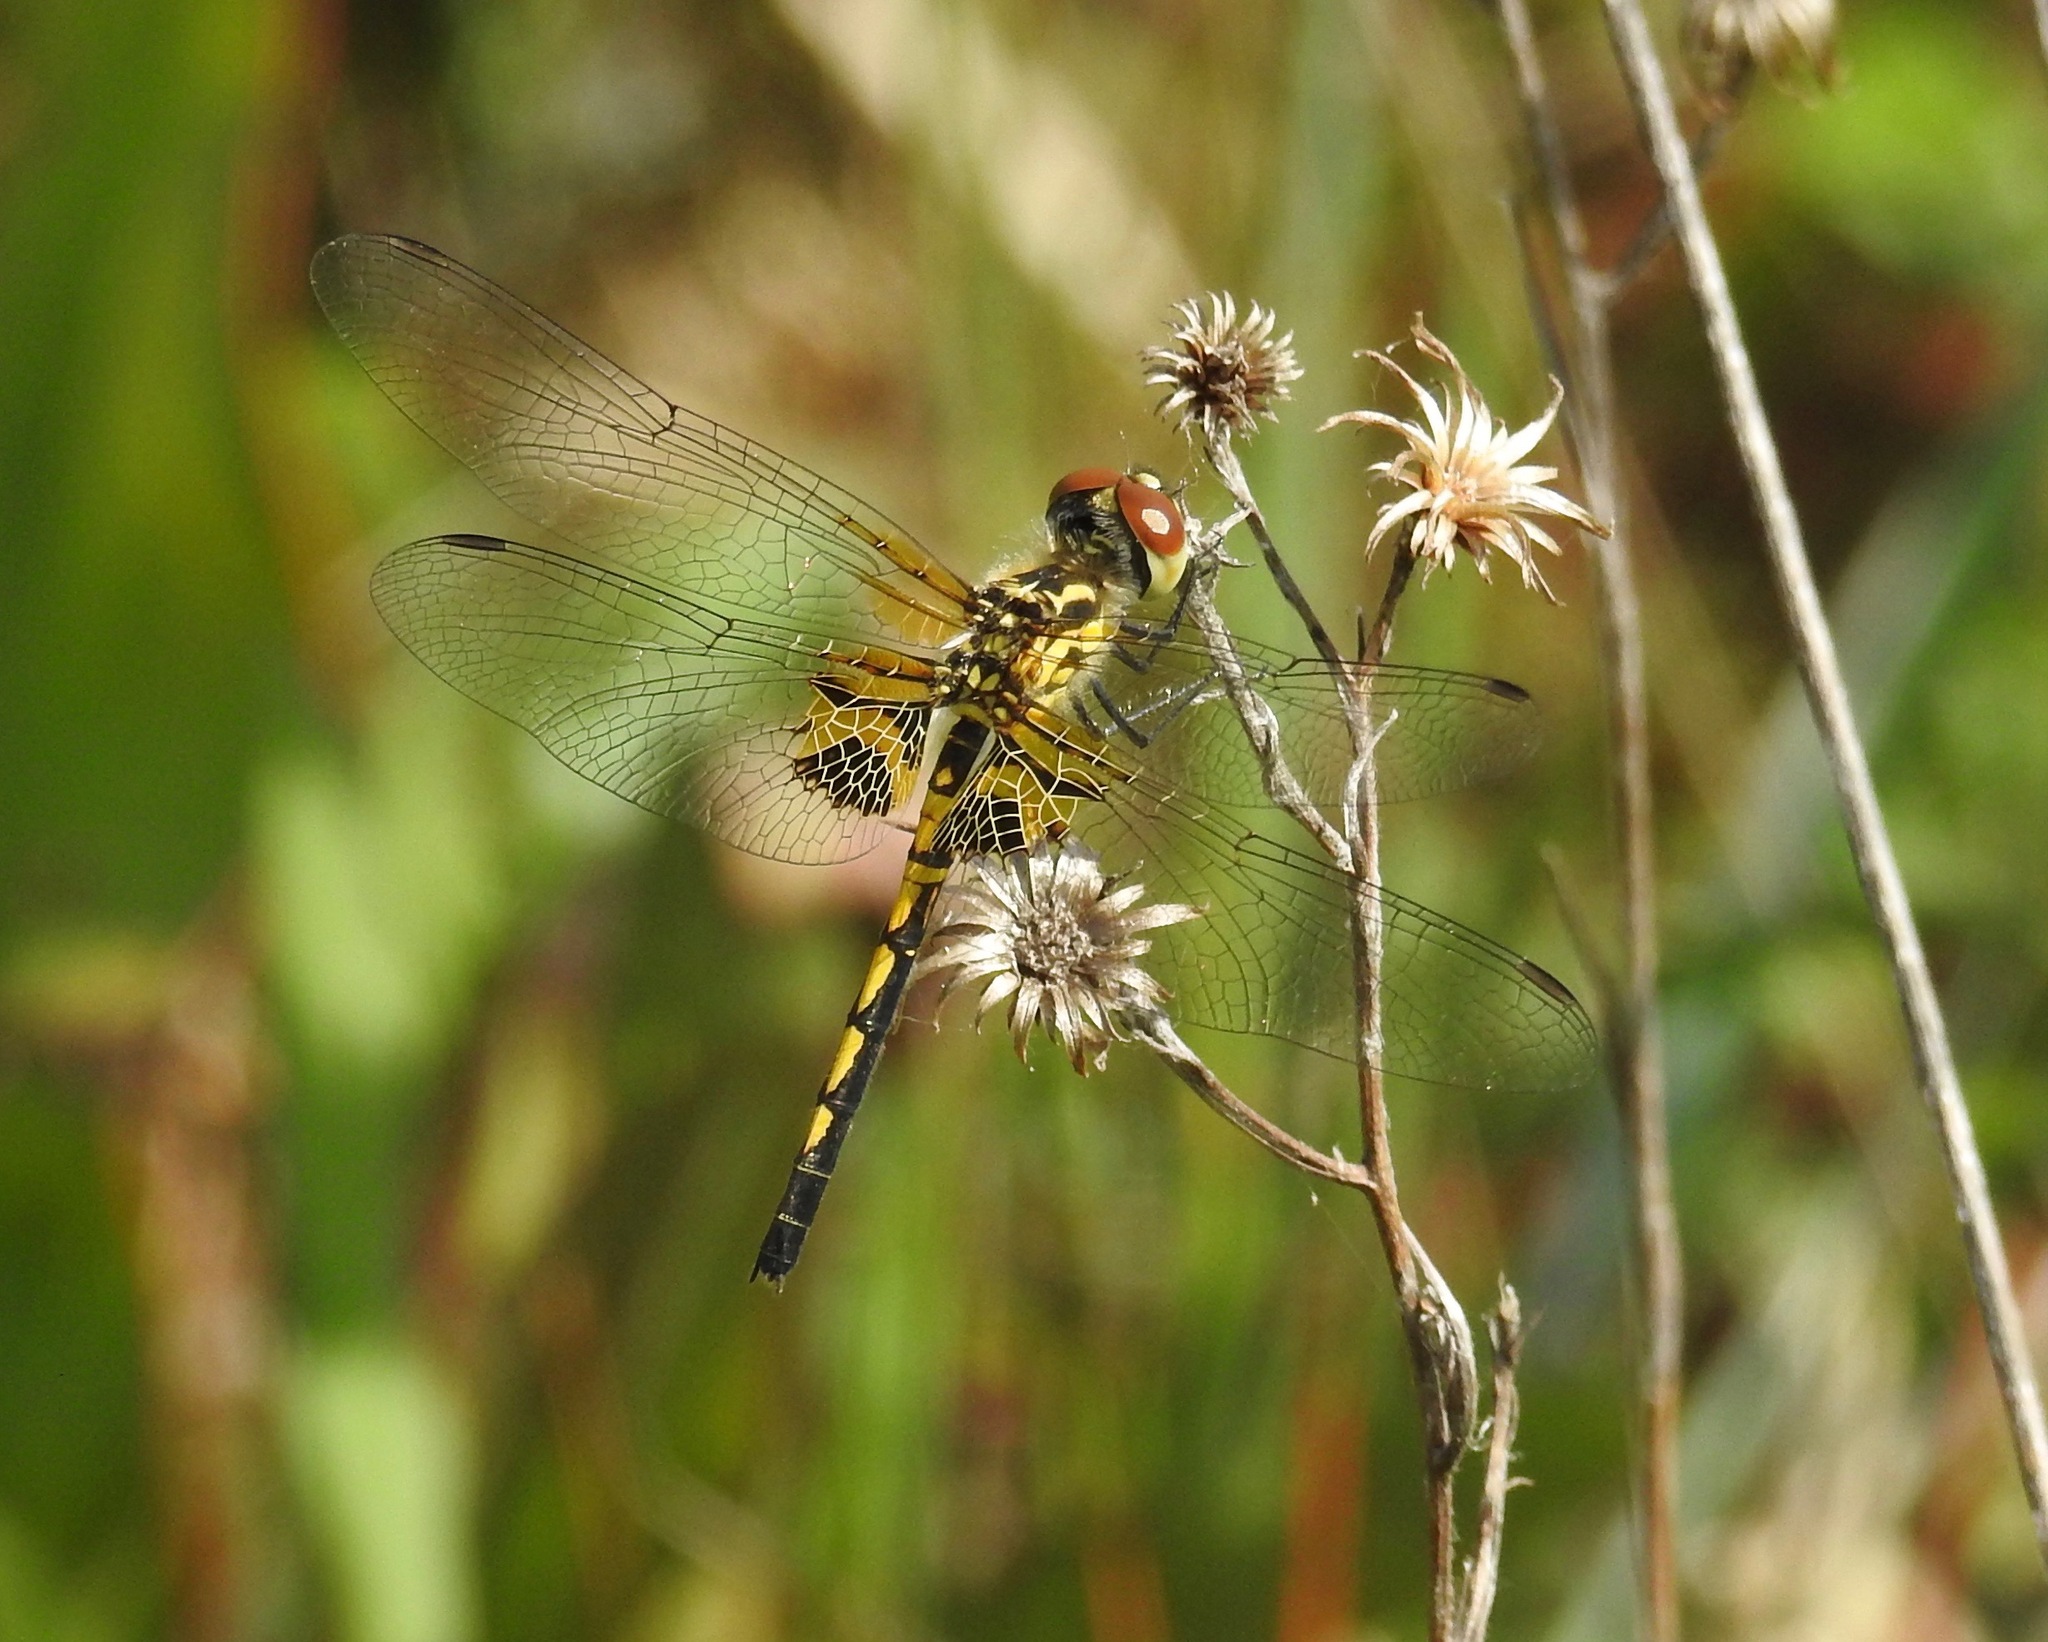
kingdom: Animalia
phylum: Arthropoda
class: Insecta
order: Odonata
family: Libellulidae
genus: Celithemis
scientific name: Celithemis ornata
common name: Ornate pennant
